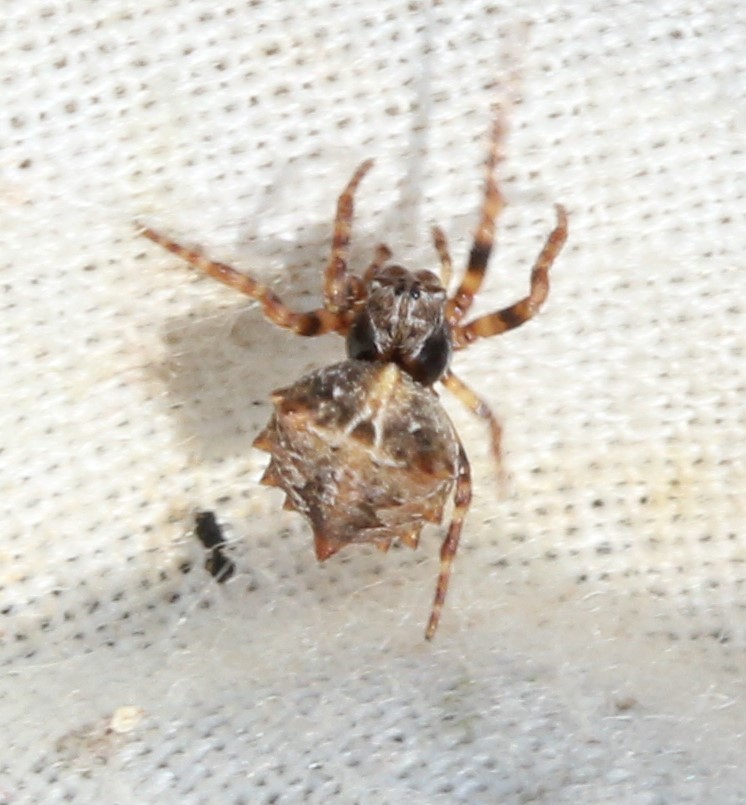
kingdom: Animalia
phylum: Arthropoda
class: Arachnida
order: Araneae
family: Araneidae
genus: Acanthepeira
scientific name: Acanthepeira stellata
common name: Starbellied orbweaver
